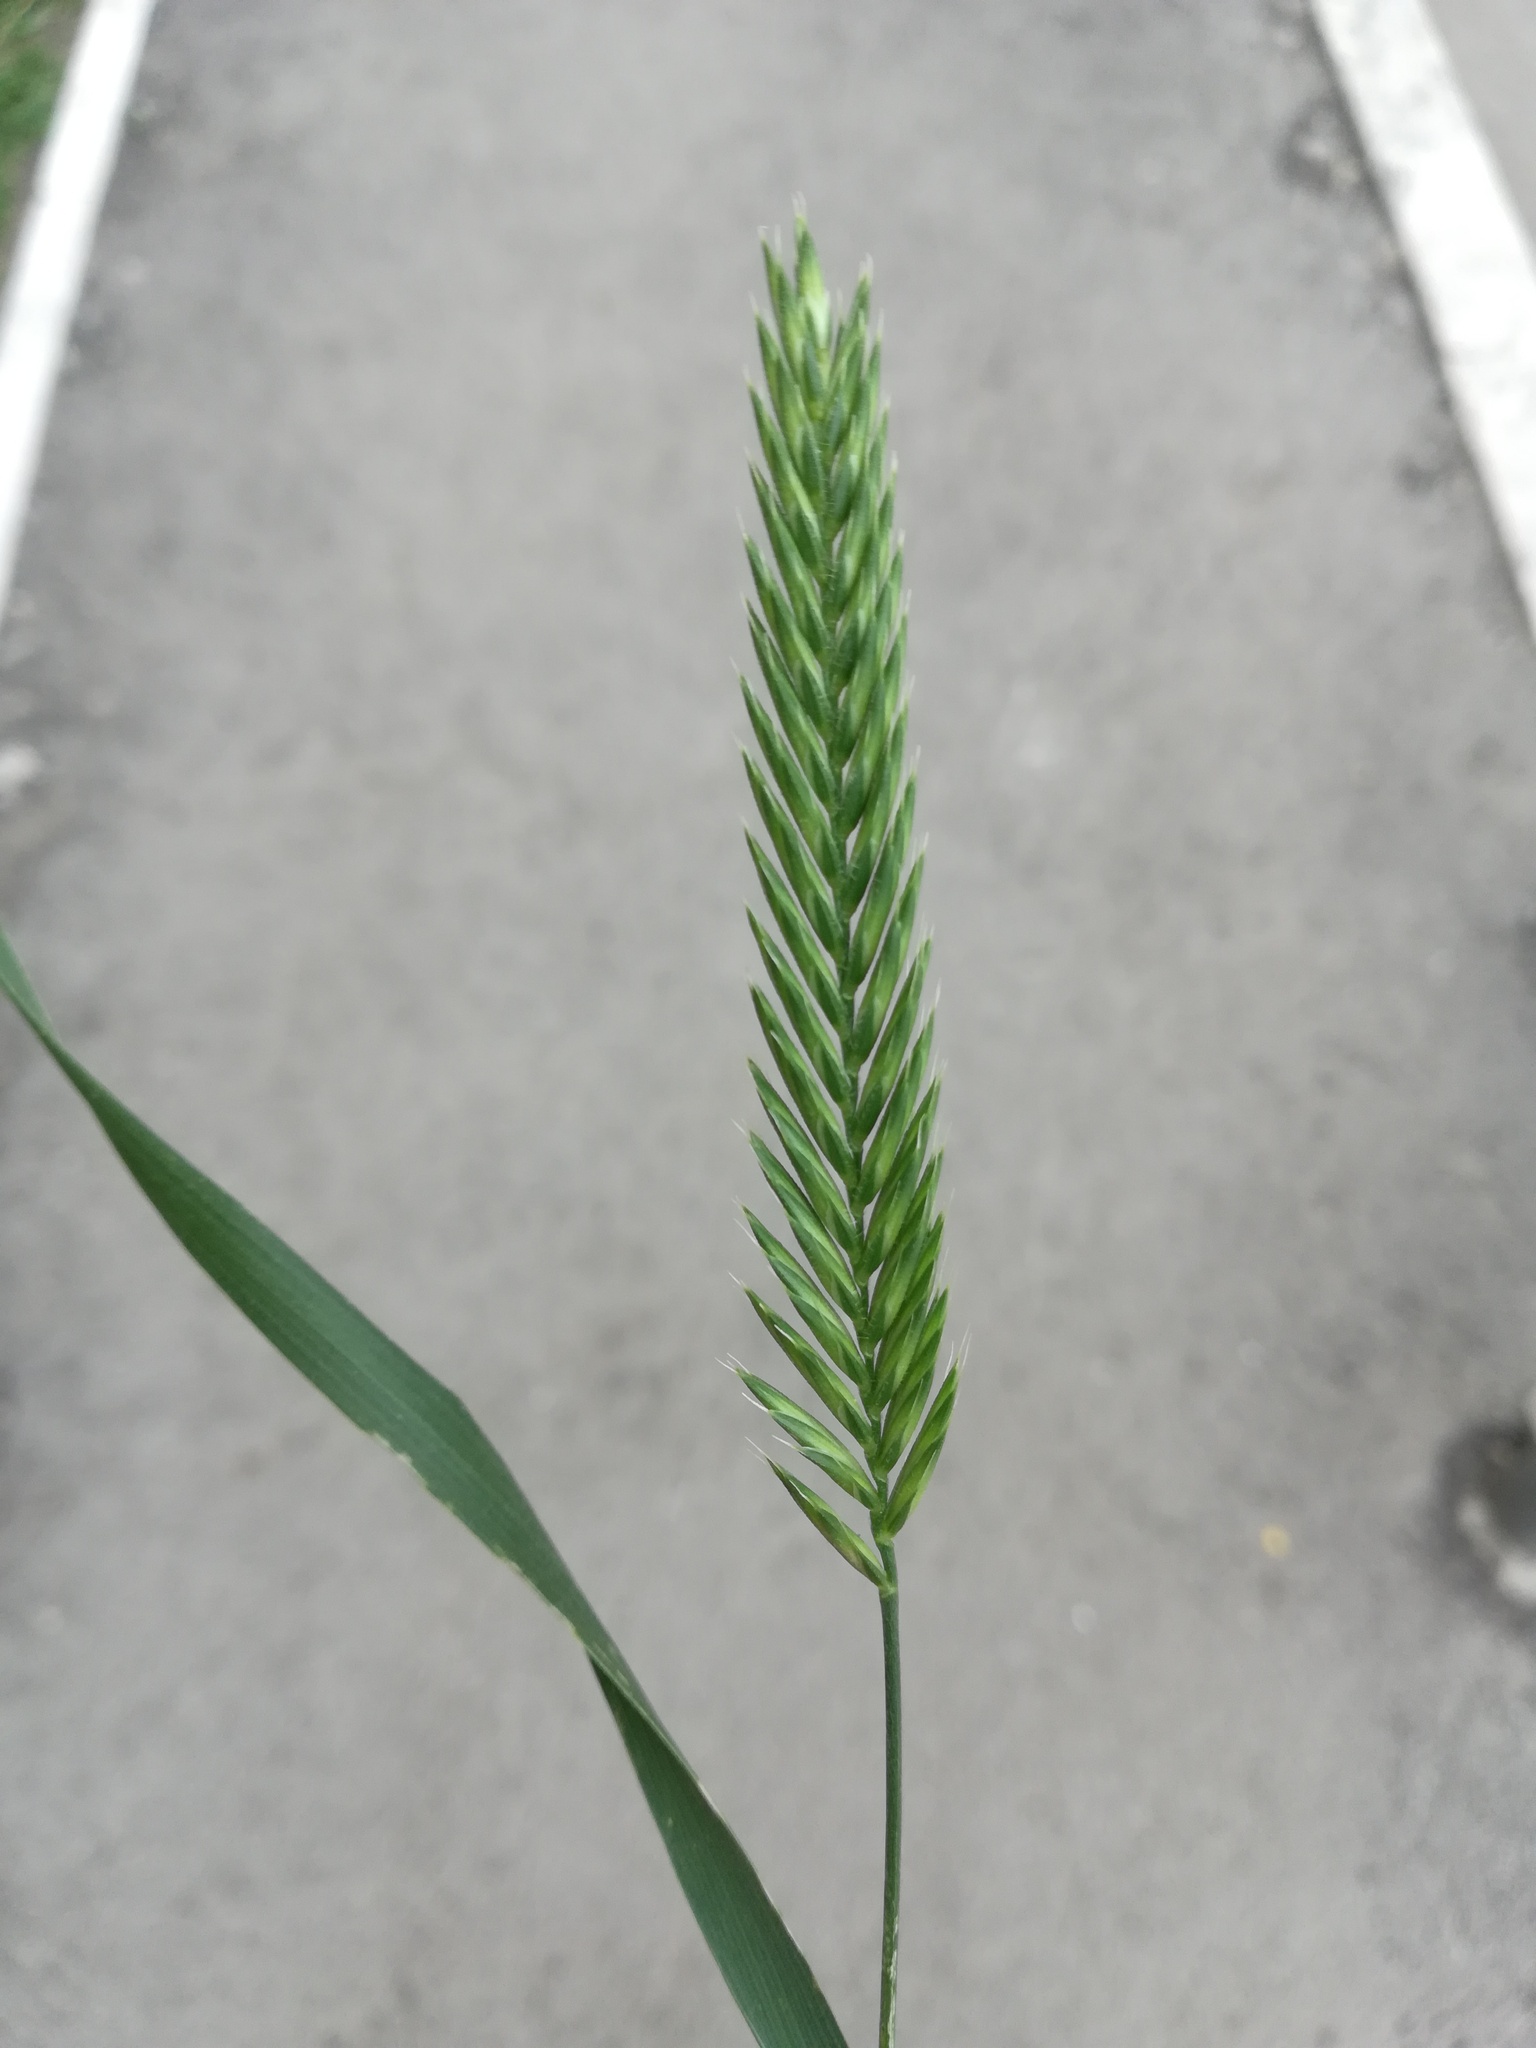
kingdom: Plantae
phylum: Tracheophyta
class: Liliopsida
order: Poales
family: Poaceae
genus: Agropyron
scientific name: Agropyron cristatum
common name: Crested wheatgrass
